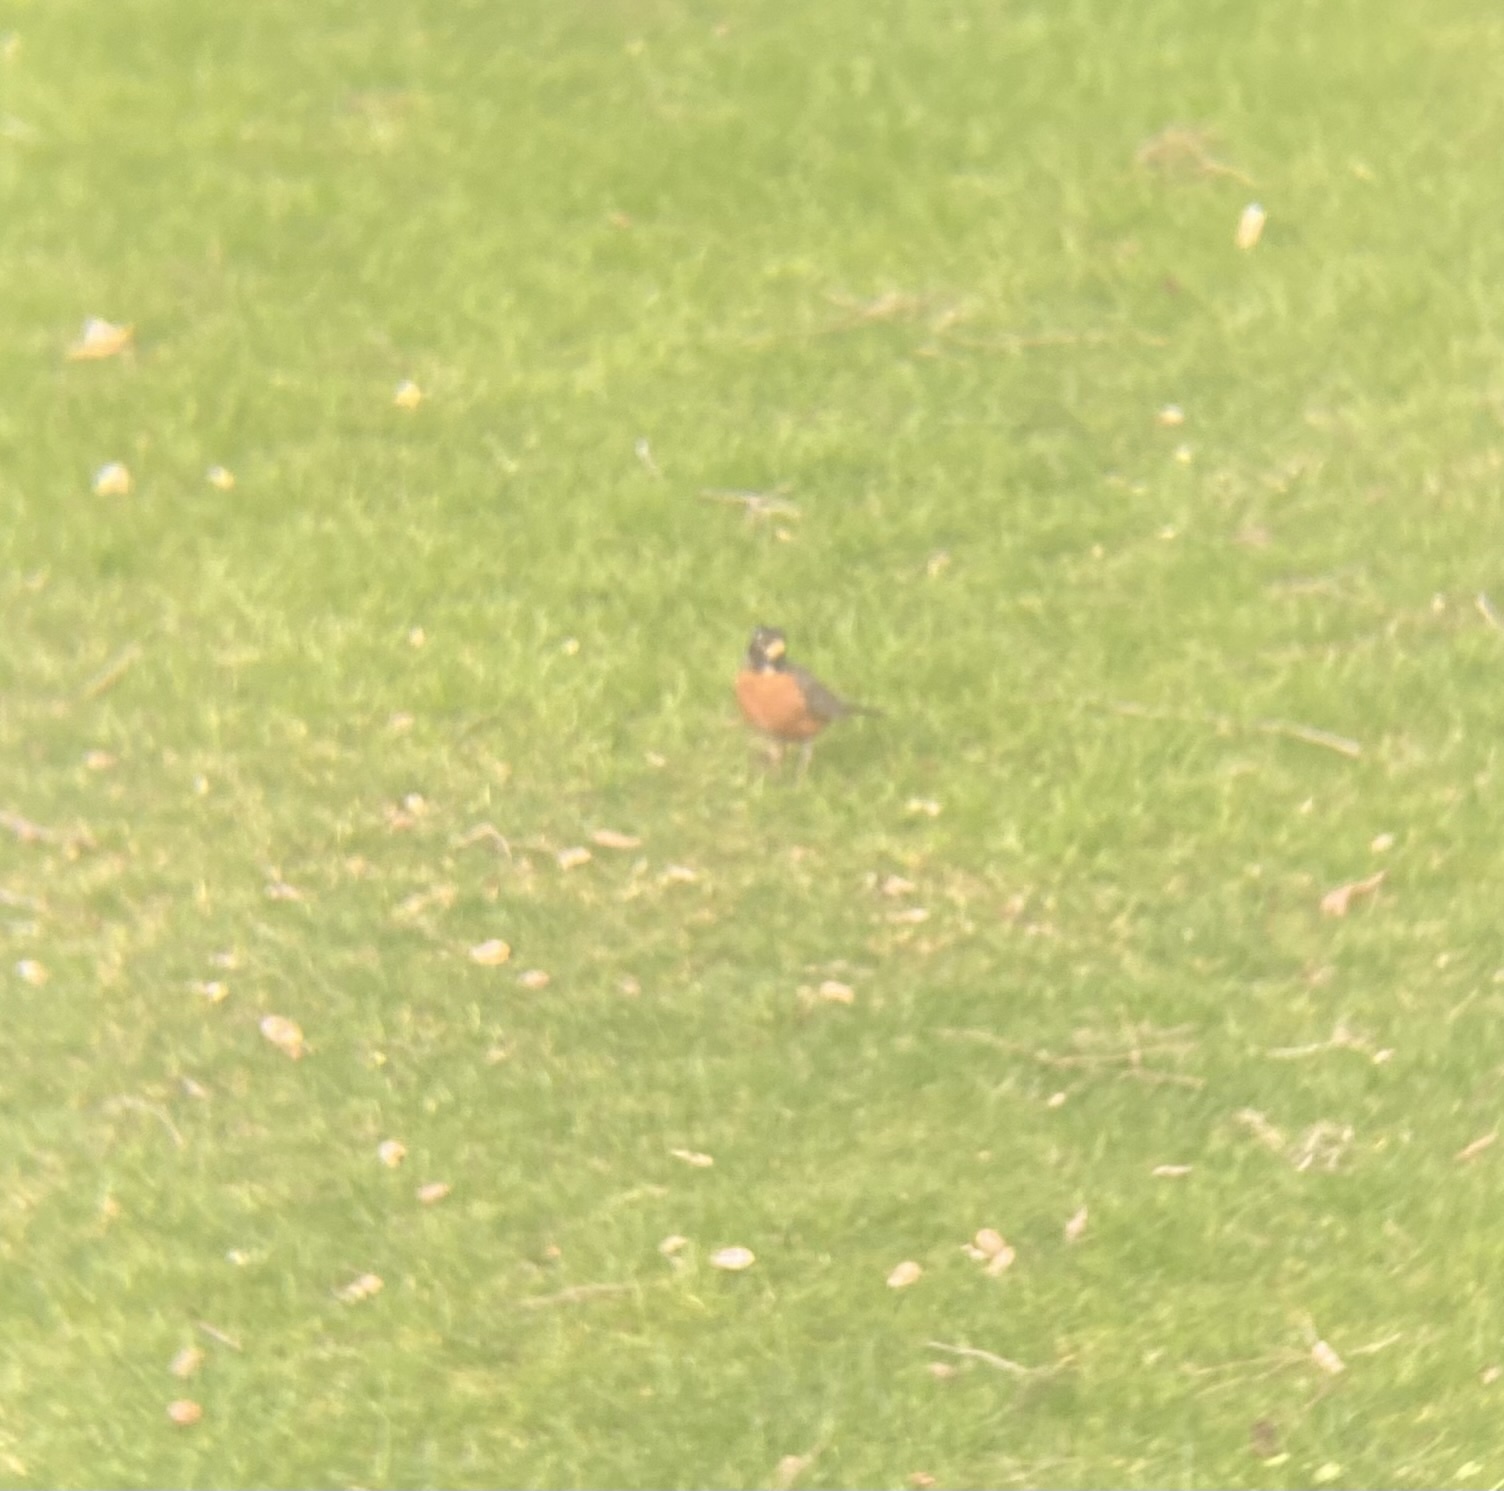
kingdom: Animalia
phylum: Chordata
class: Aves
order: Passeriformes
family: Turdidae
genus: Turdus
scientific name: Turdus migratorius
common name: American robin
